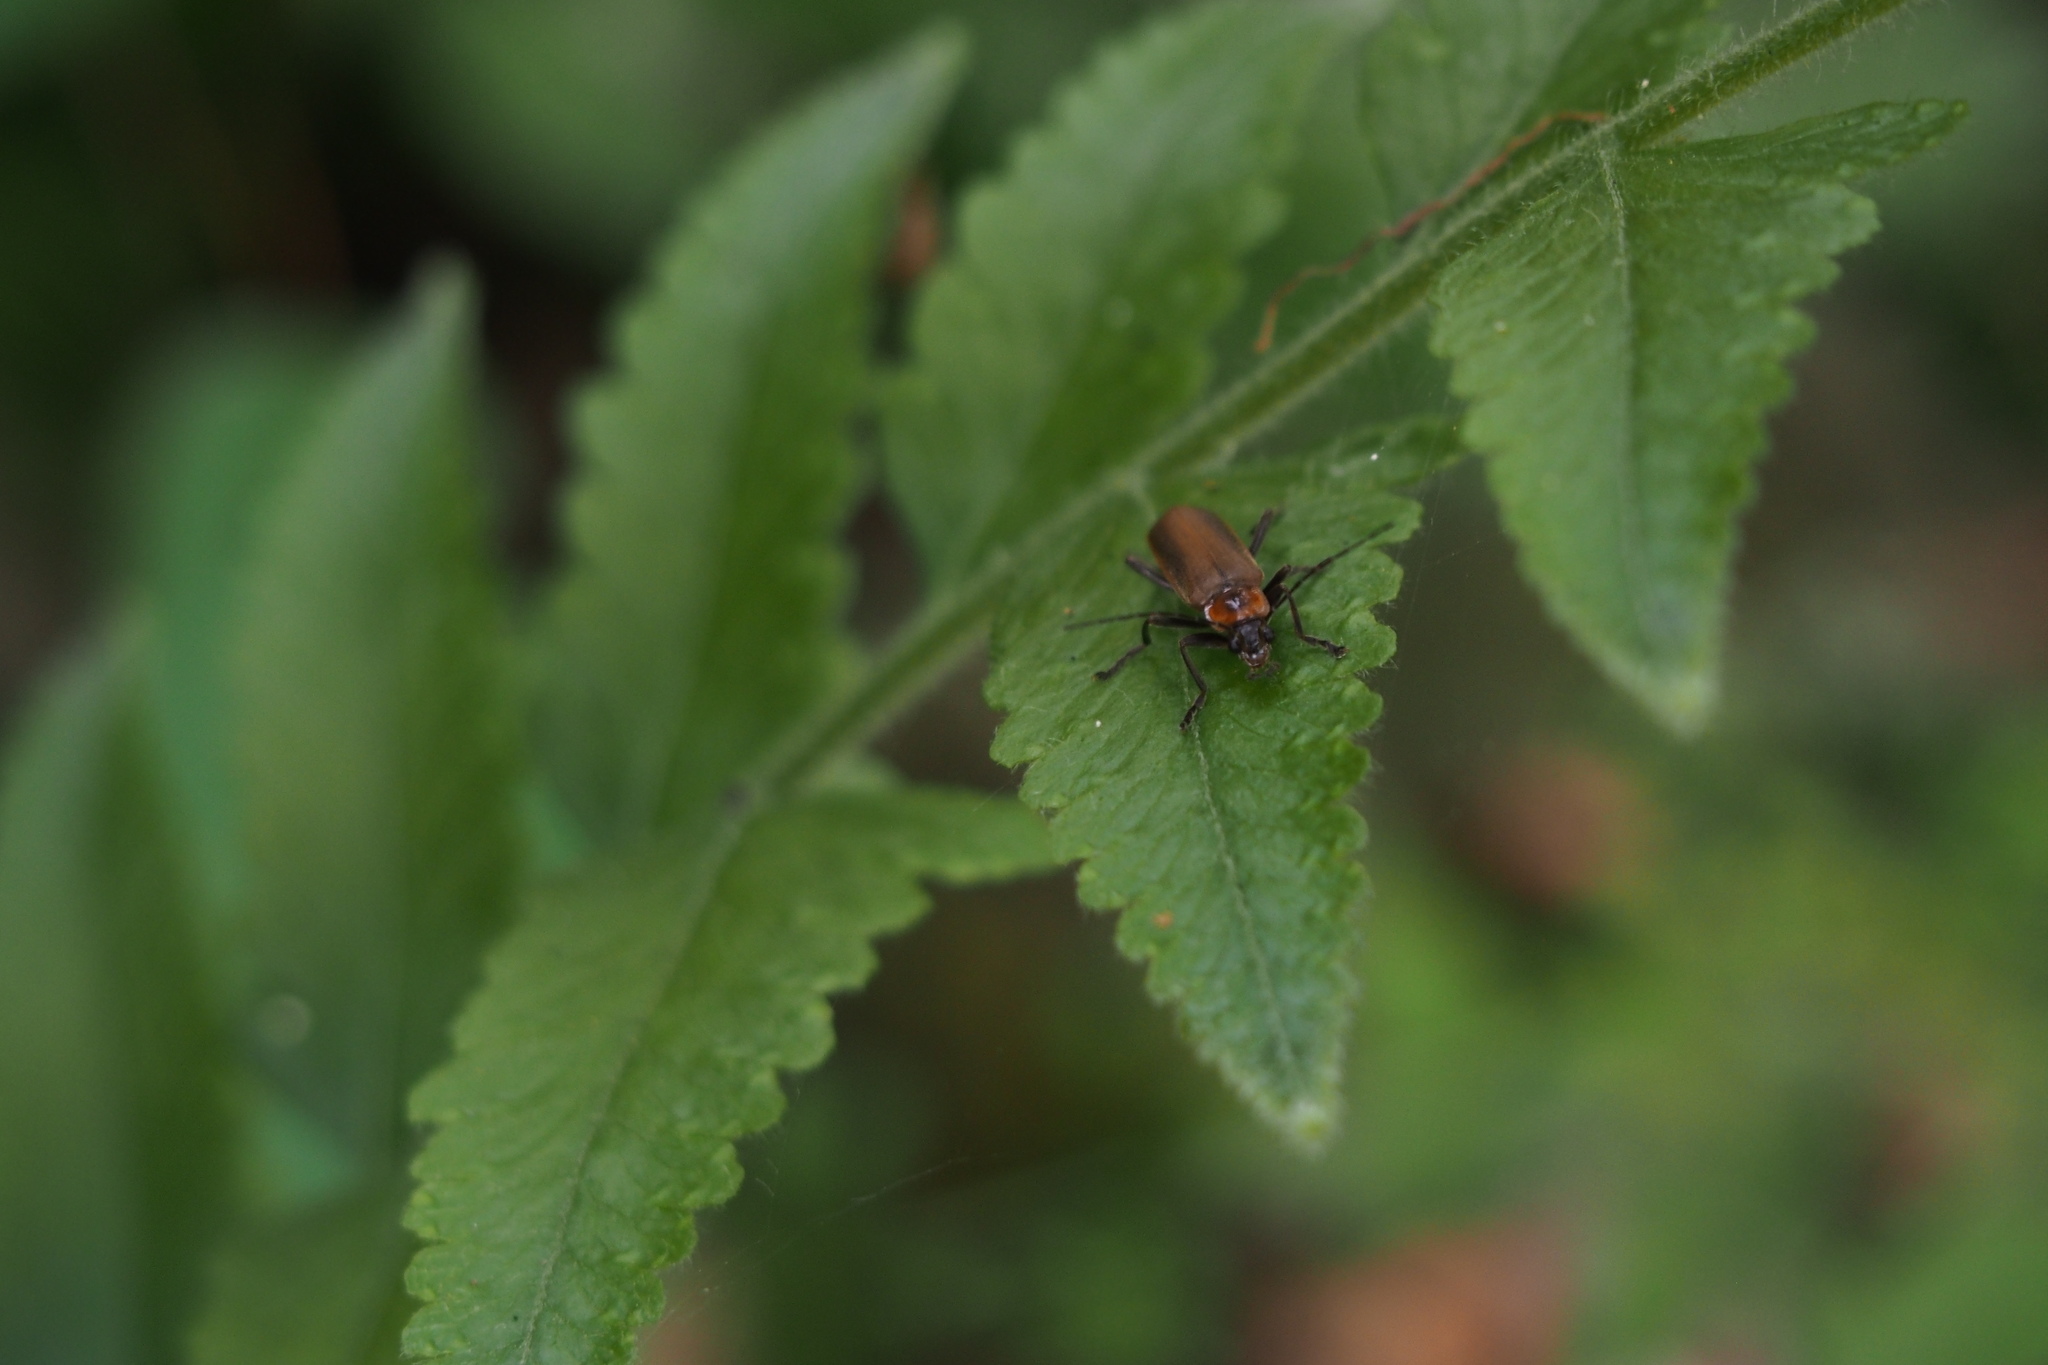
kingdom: Animalia
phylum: Arthropoda
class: Insecta
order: Coleoptera
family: Cantharidae
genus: Prothemus
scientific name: Prothemus
